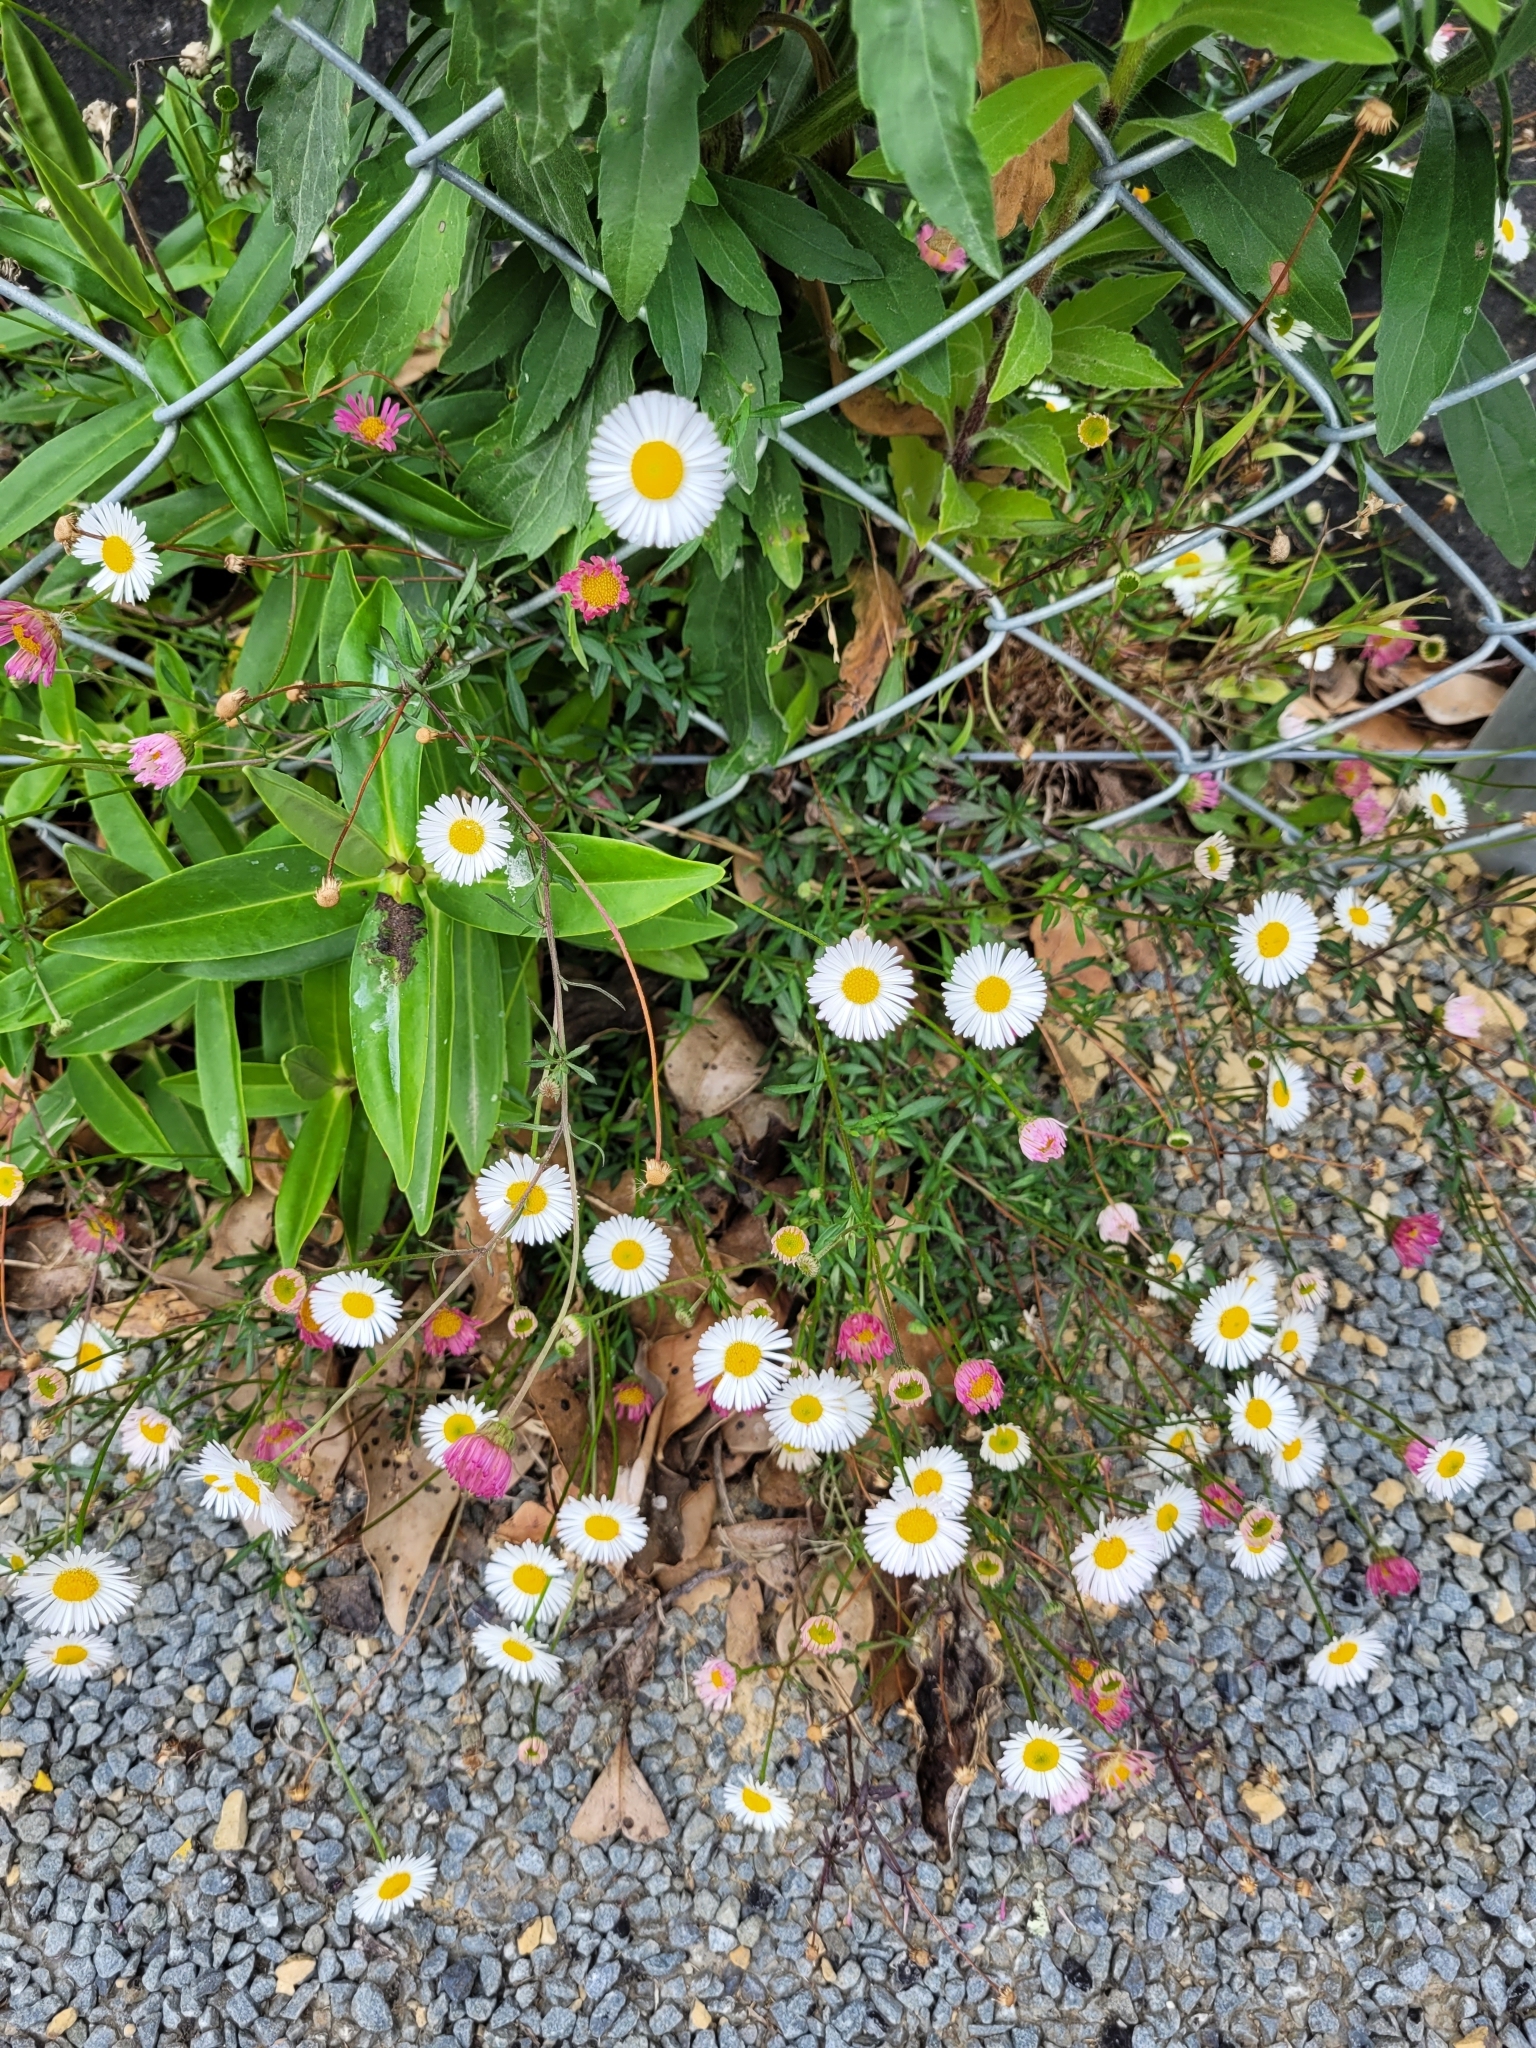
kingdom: Plantae
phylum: Tracheophyta
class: Magnoliopsida
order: Asterales
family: Asteraceae
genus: Erigeron
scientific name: Erigeron karvinskianus
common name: Mexican fleabane
